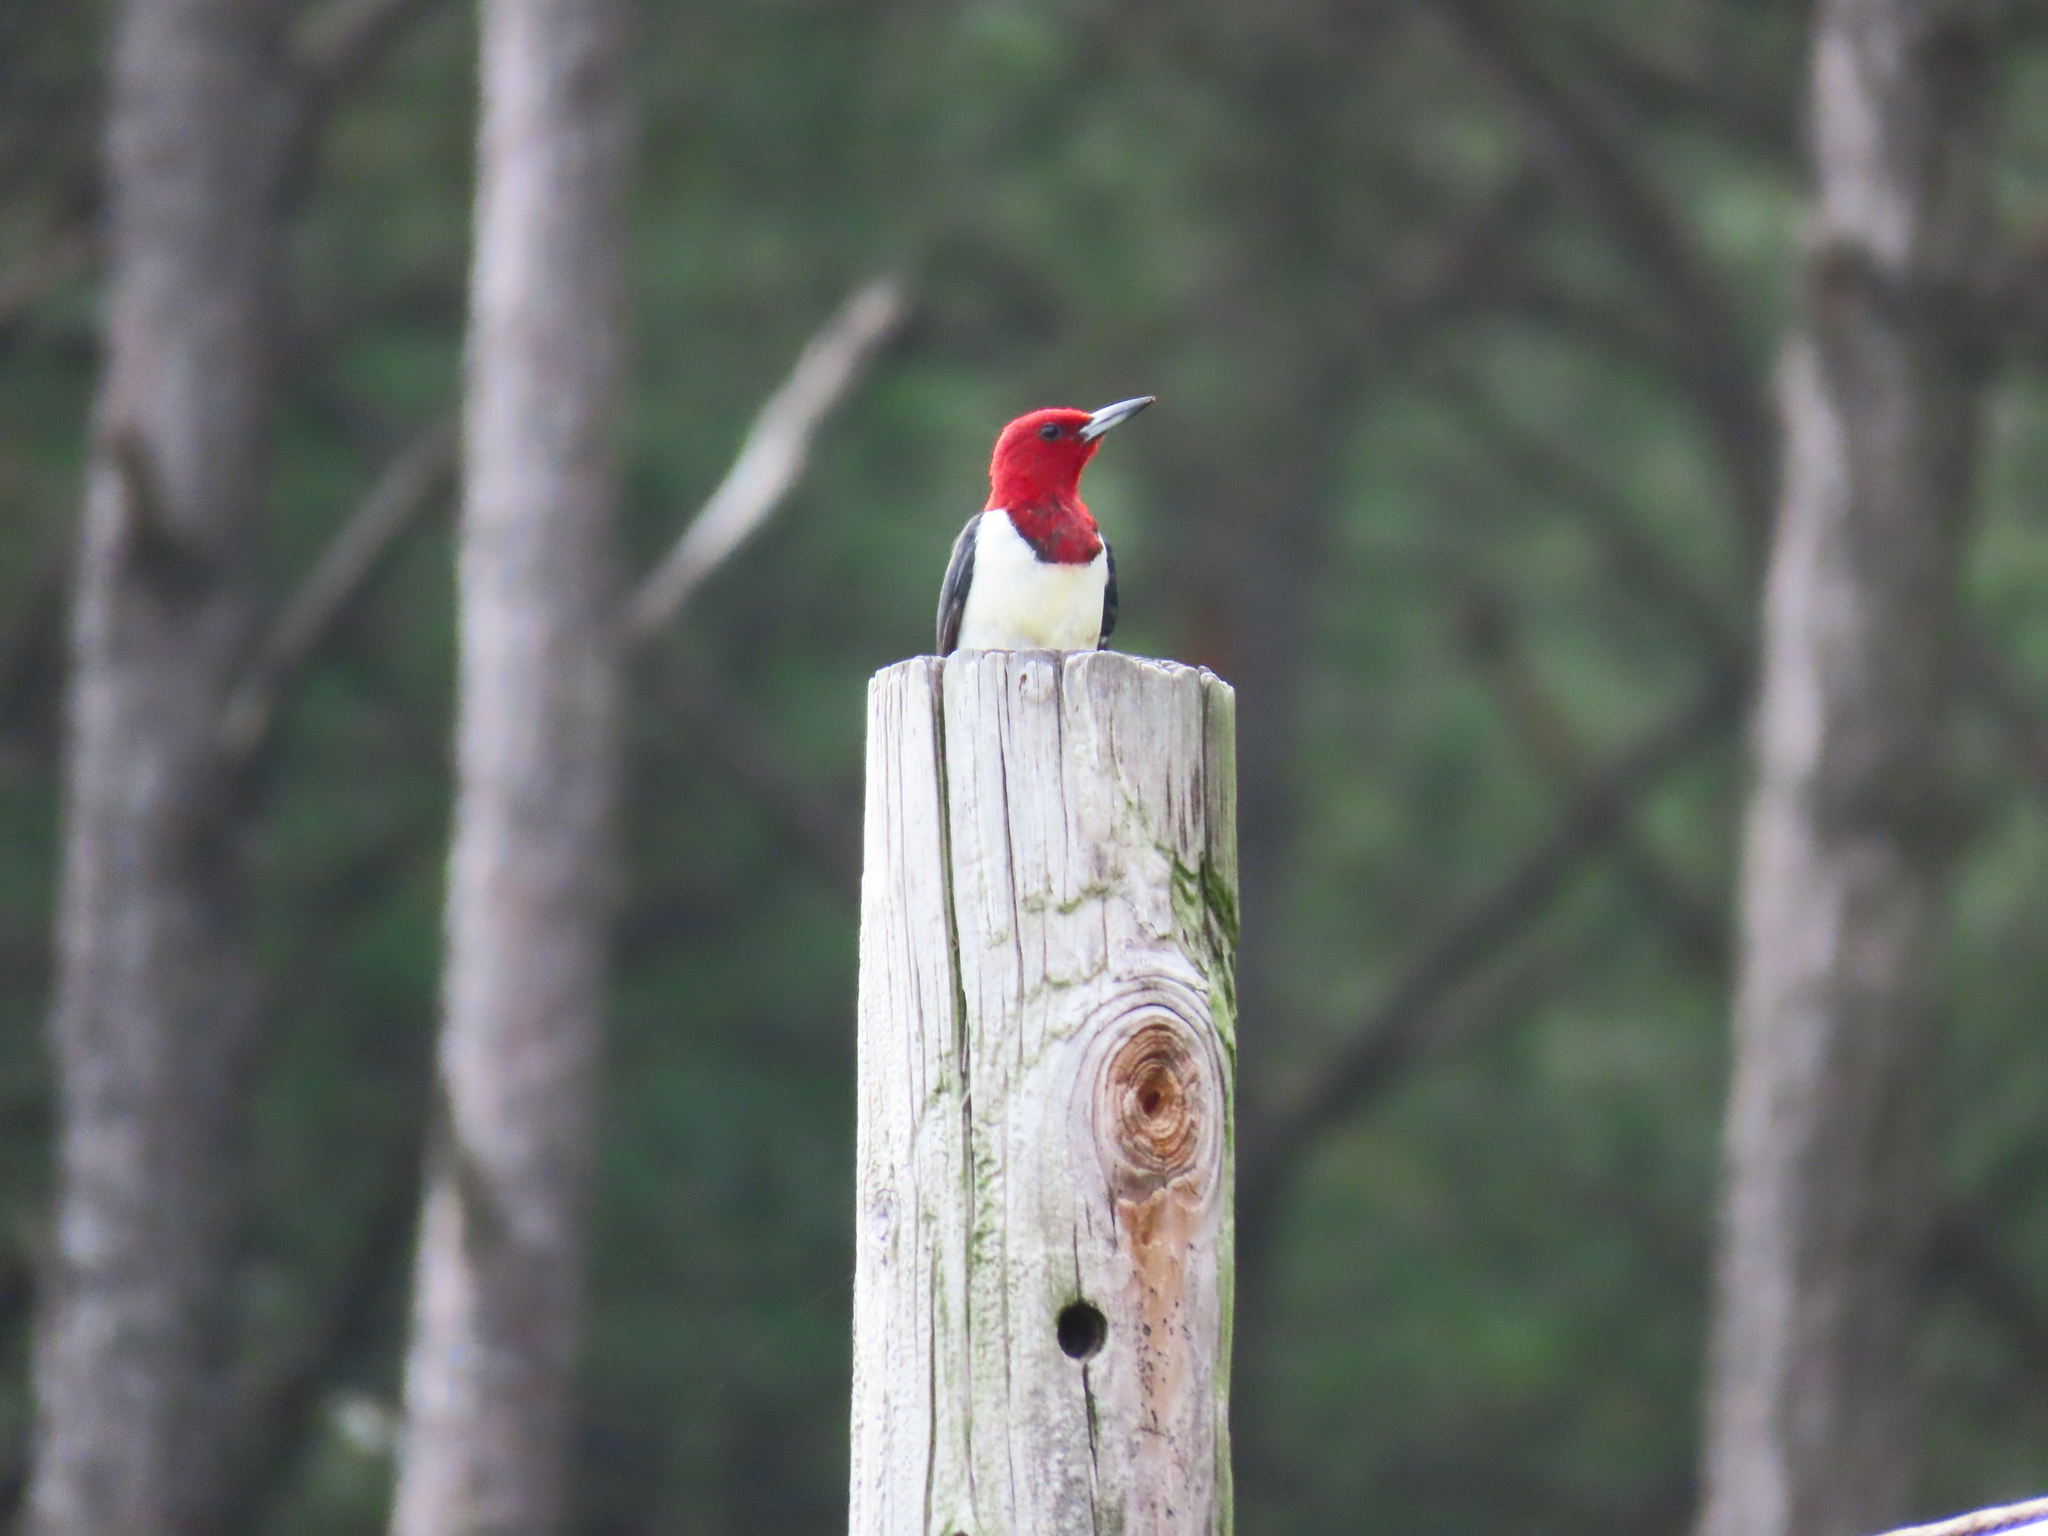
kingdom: Animalia
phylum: Chordata
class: Aves
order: Piciformes
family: Picidae
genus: Melanerpes
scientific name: Melanerpes erythrocephalus
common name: Red-headed woodpecker
